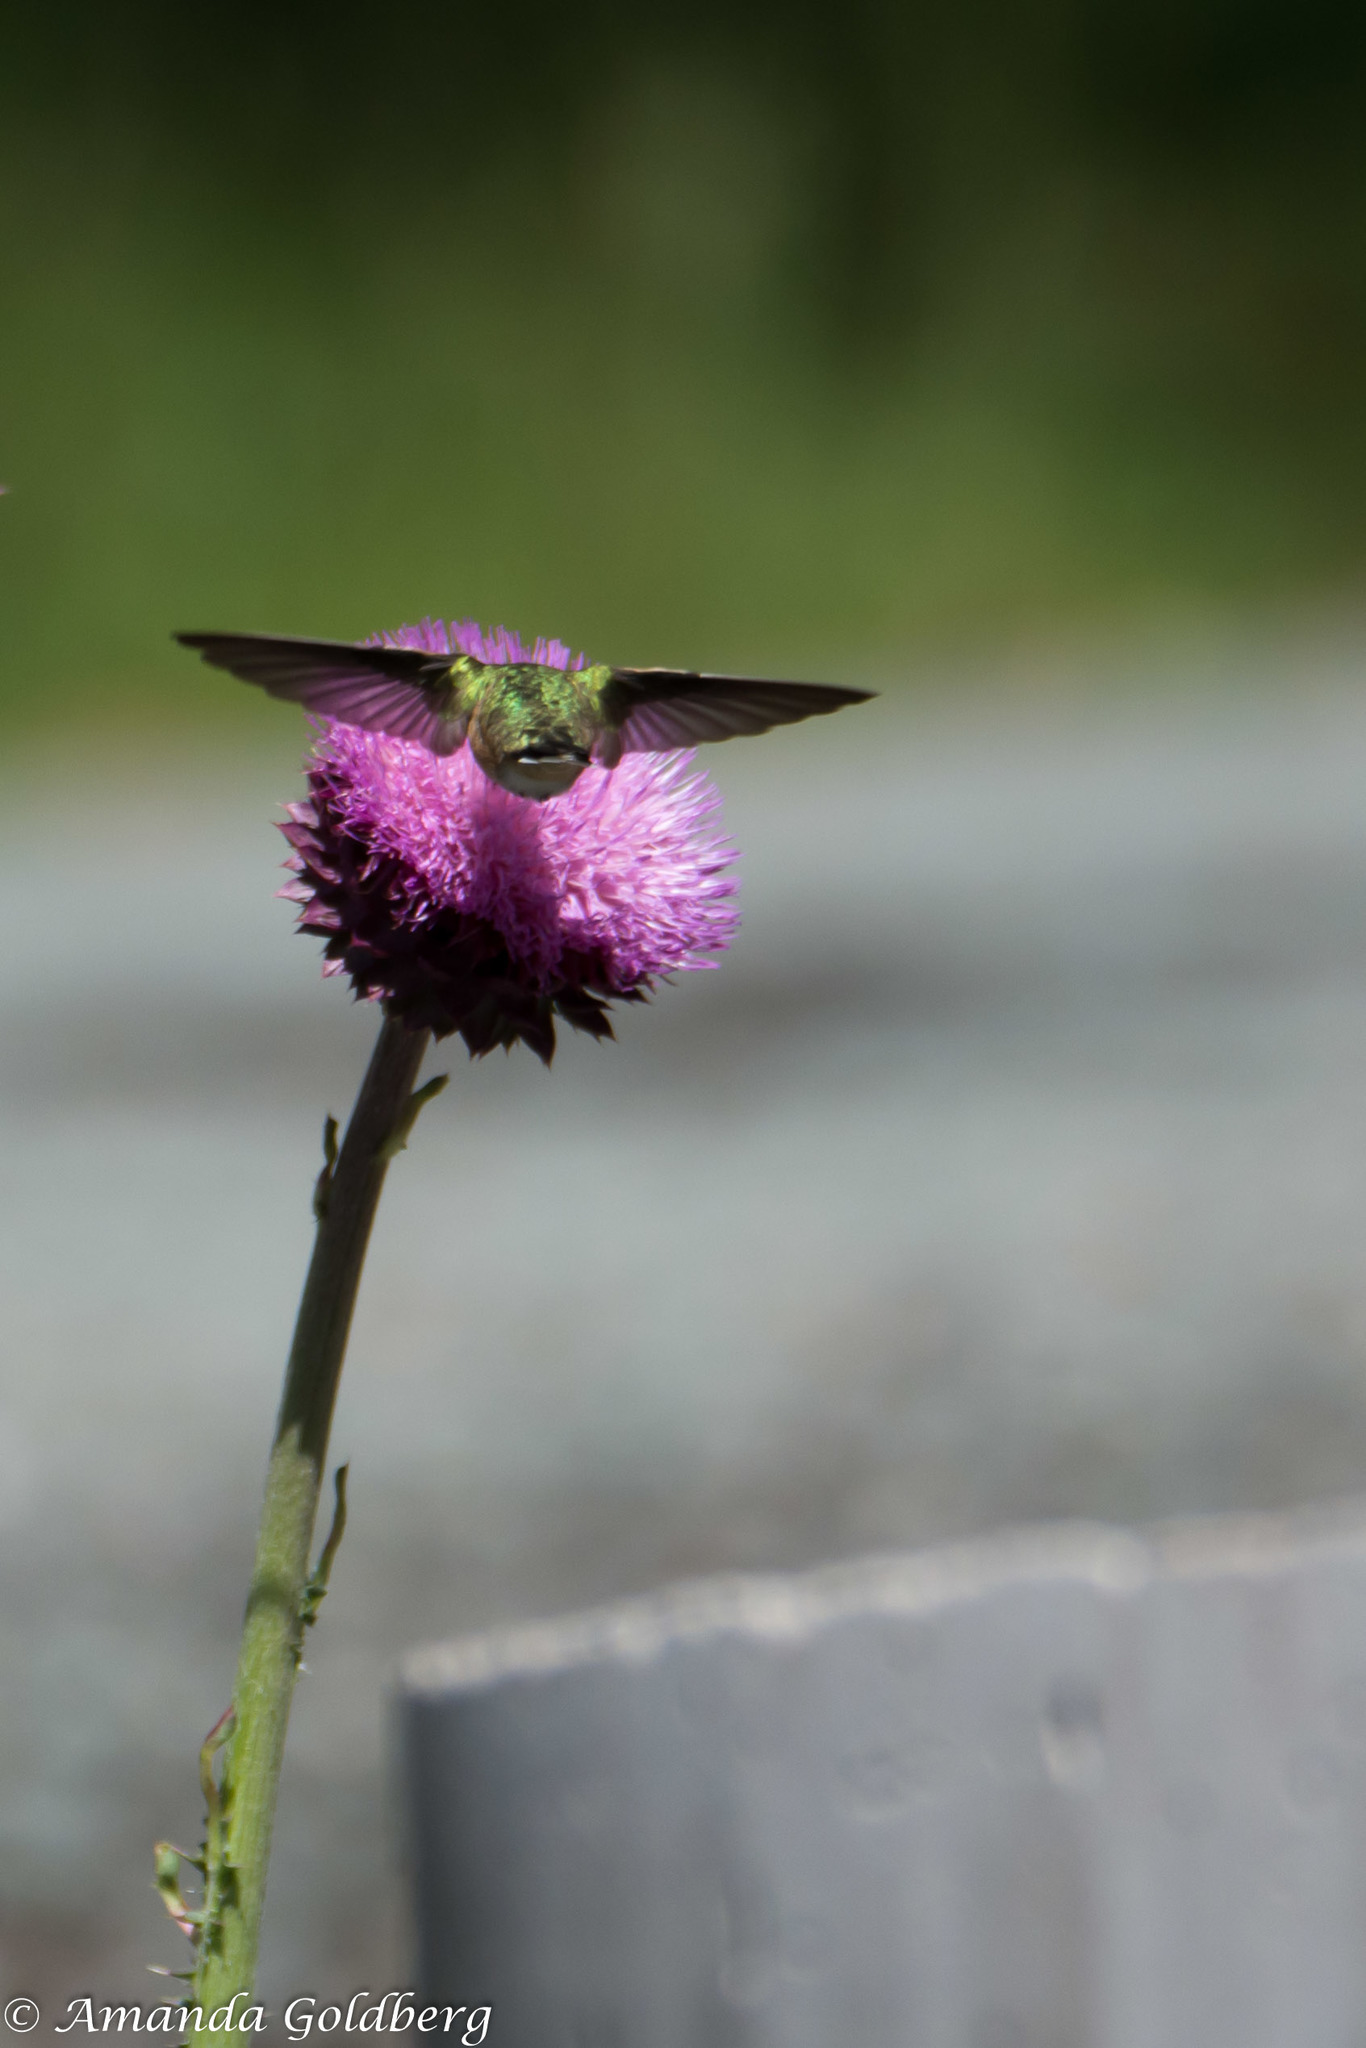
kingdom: Animalia
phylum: Chordata
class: Aves
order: Apodiformes
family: Trochilidae
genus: Selasphorus
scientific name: Selasphorus calliope
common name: Calliope hummingbird
